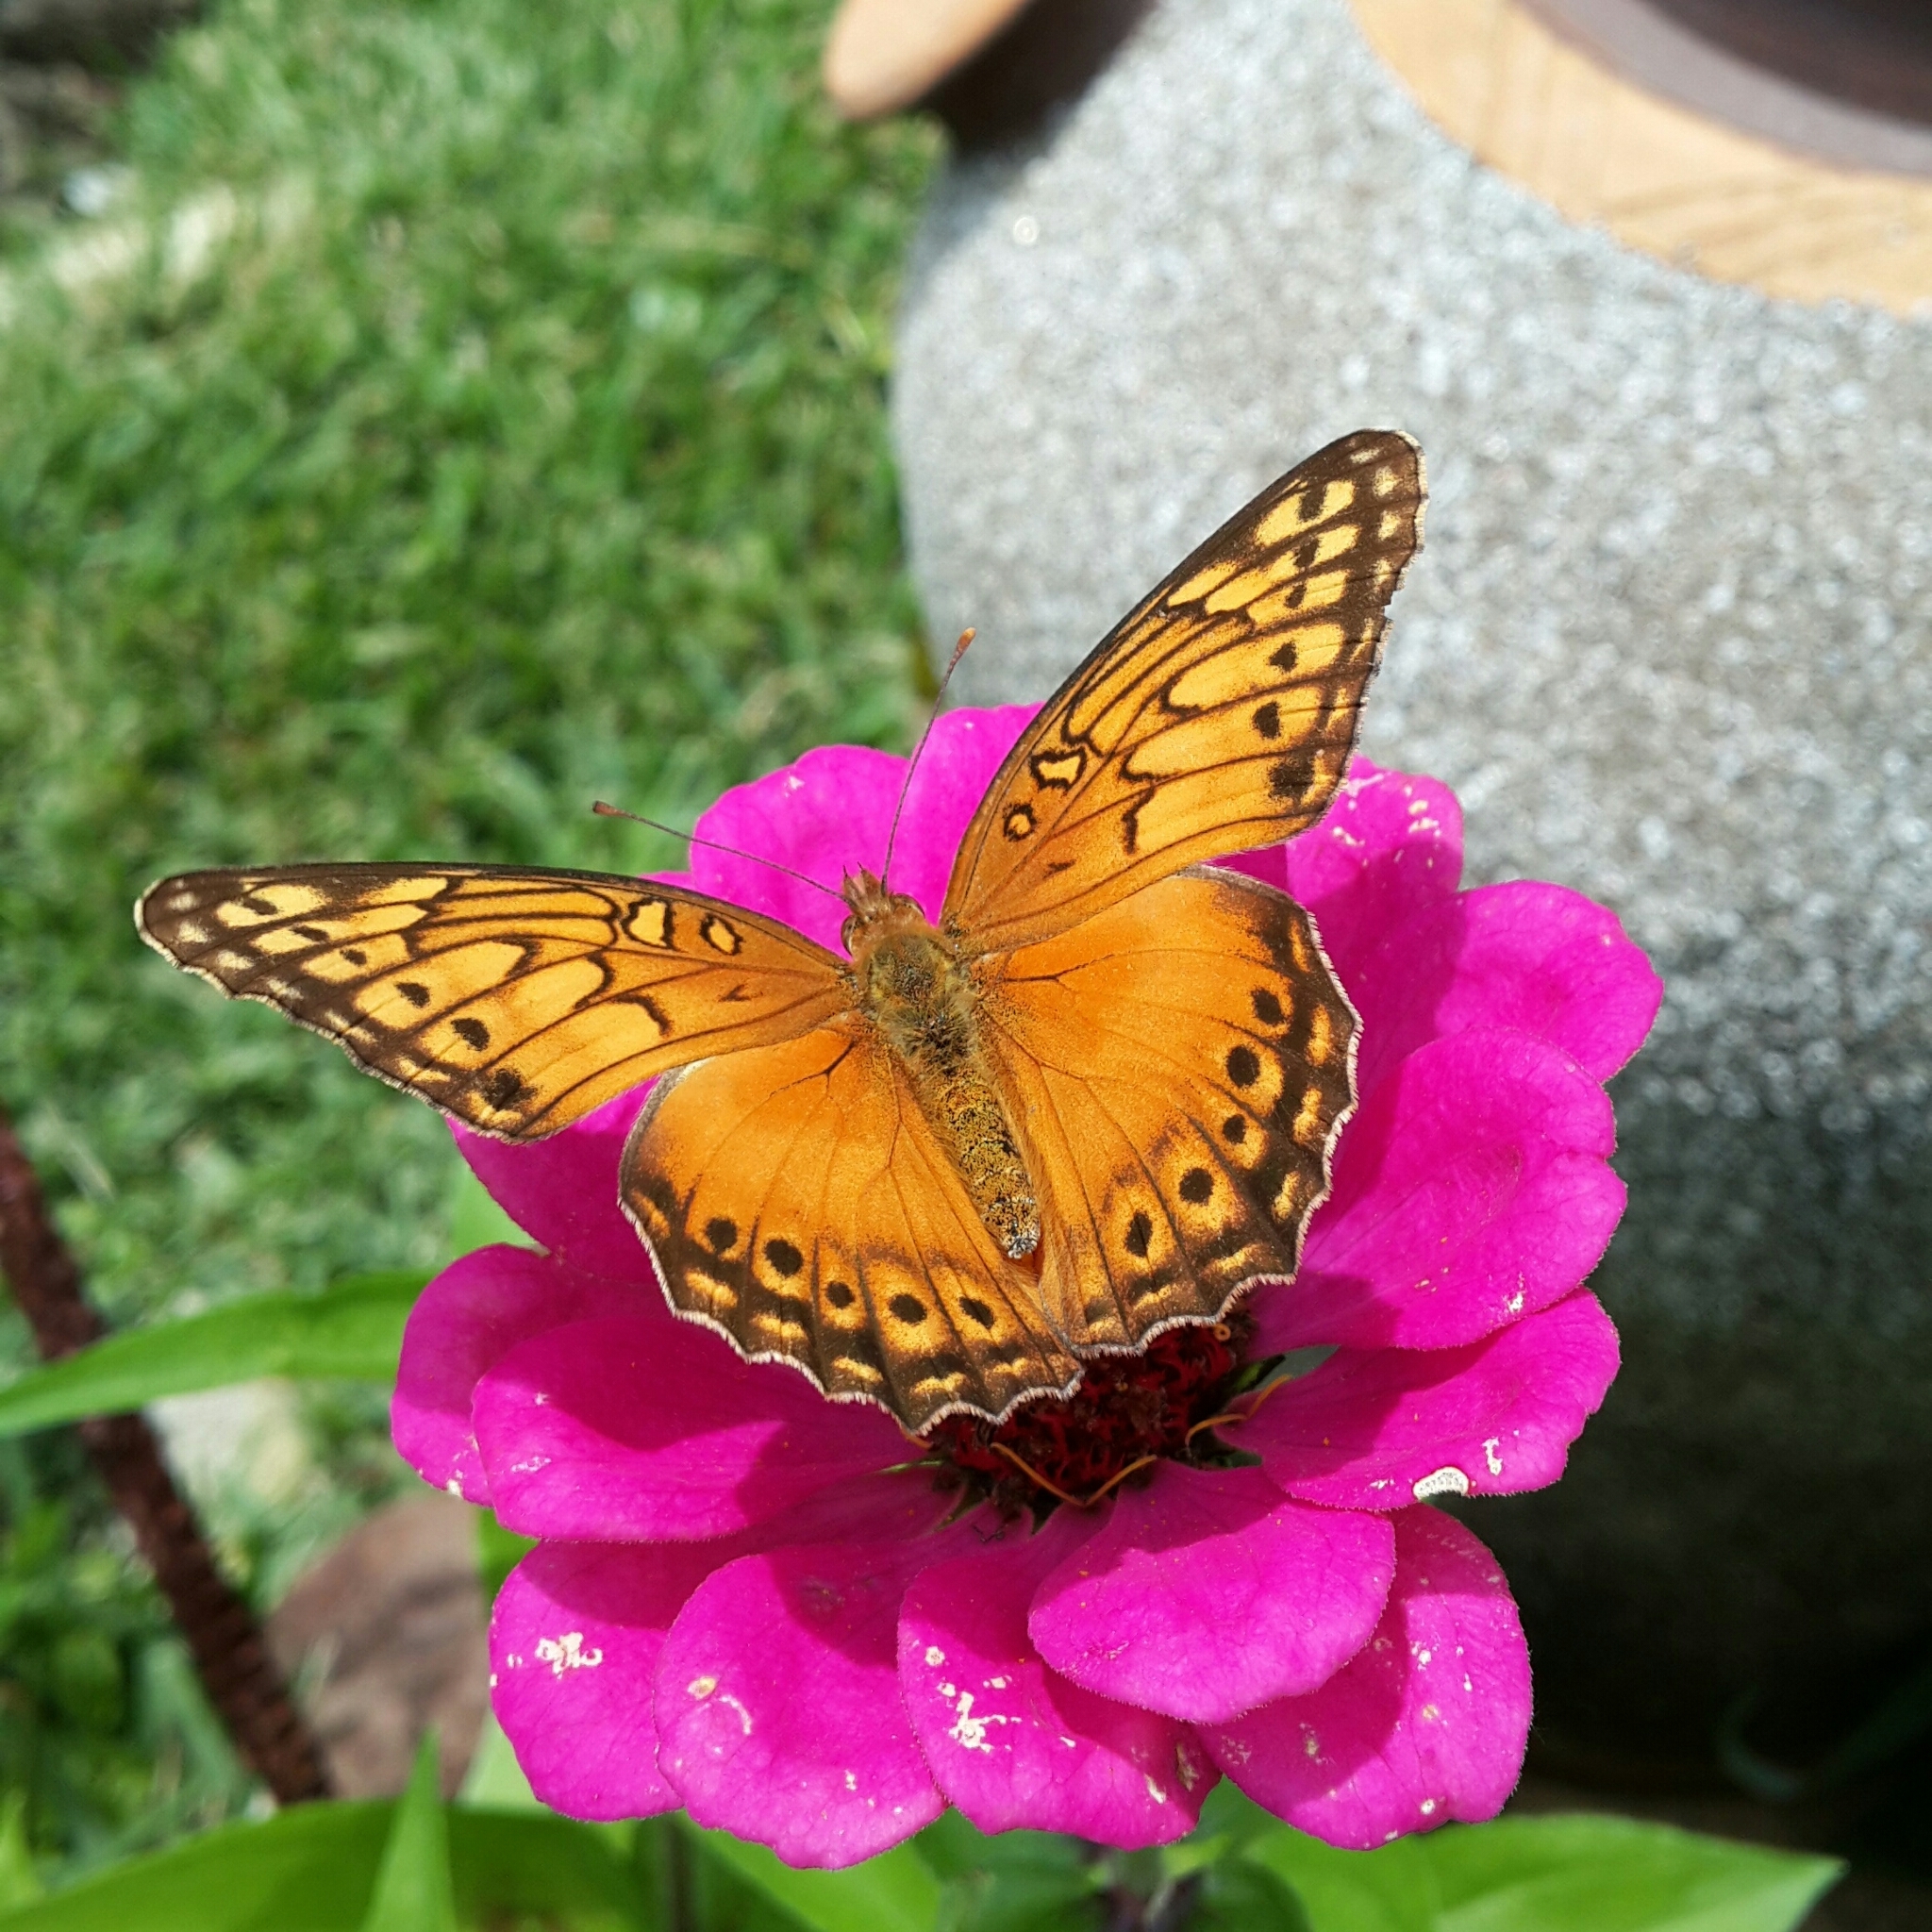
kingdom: Animalia
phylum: Arthropoda
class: Insecta
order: Lepidoptera
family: Nymphalidae
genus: Euptoieta
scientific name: Euptoieta hegesia
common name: Mexican fritillary
